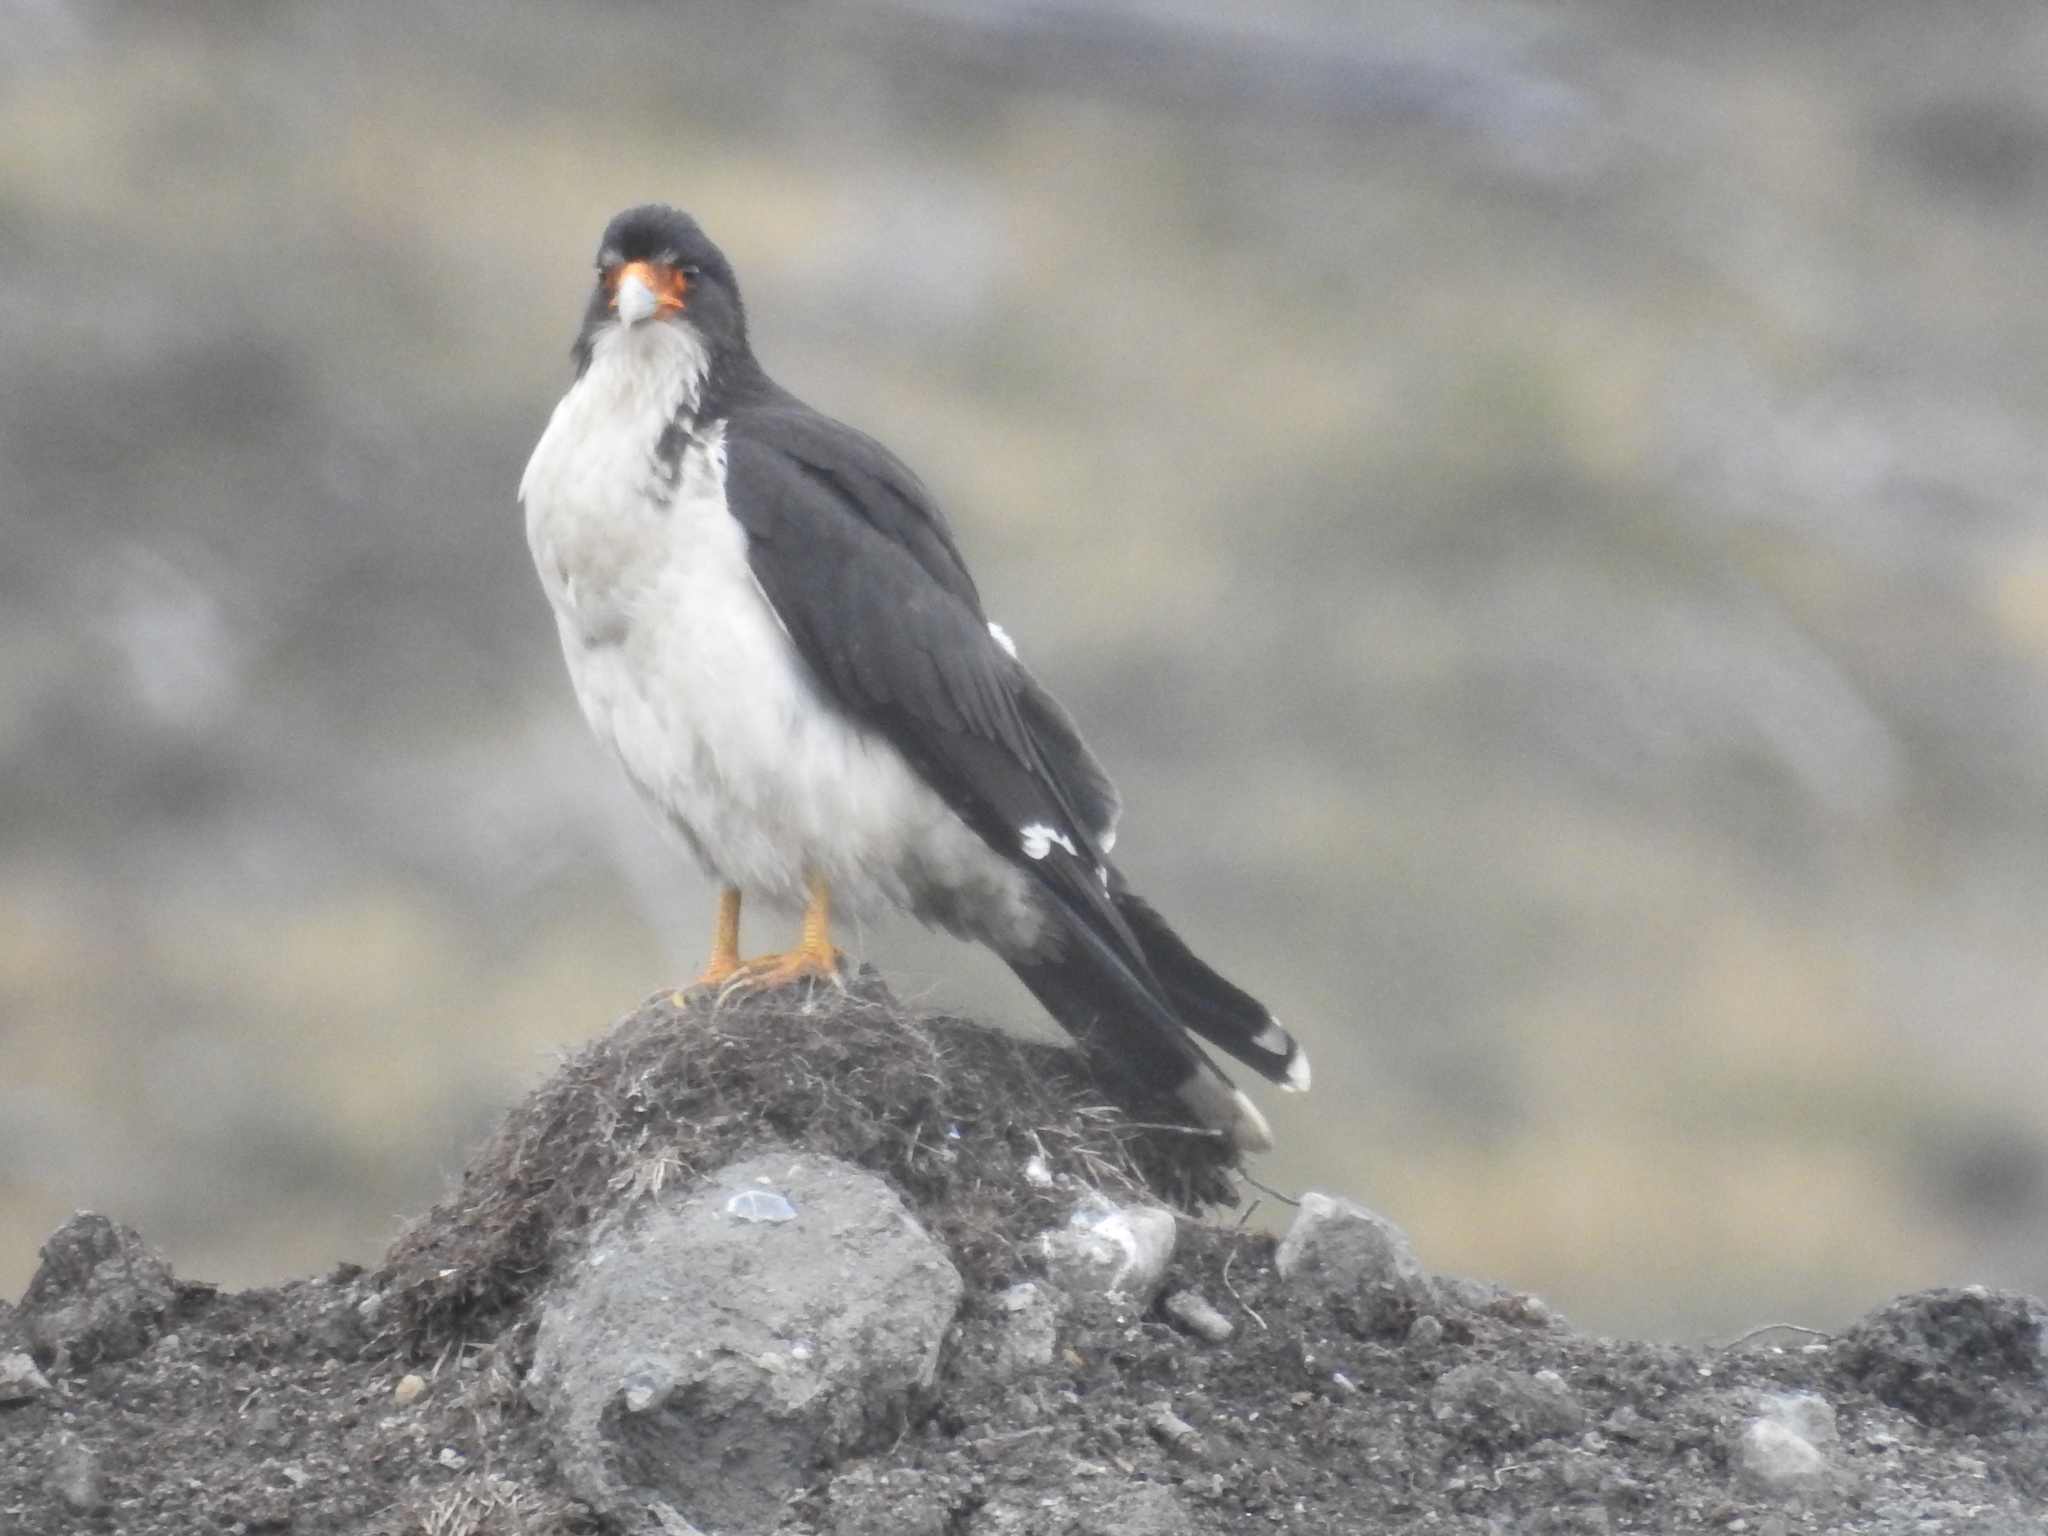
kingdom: Animalia
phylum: Chordata
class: Aves
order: Falconiformes
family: Falconidae
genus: Daptrius
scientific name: Daptrius
